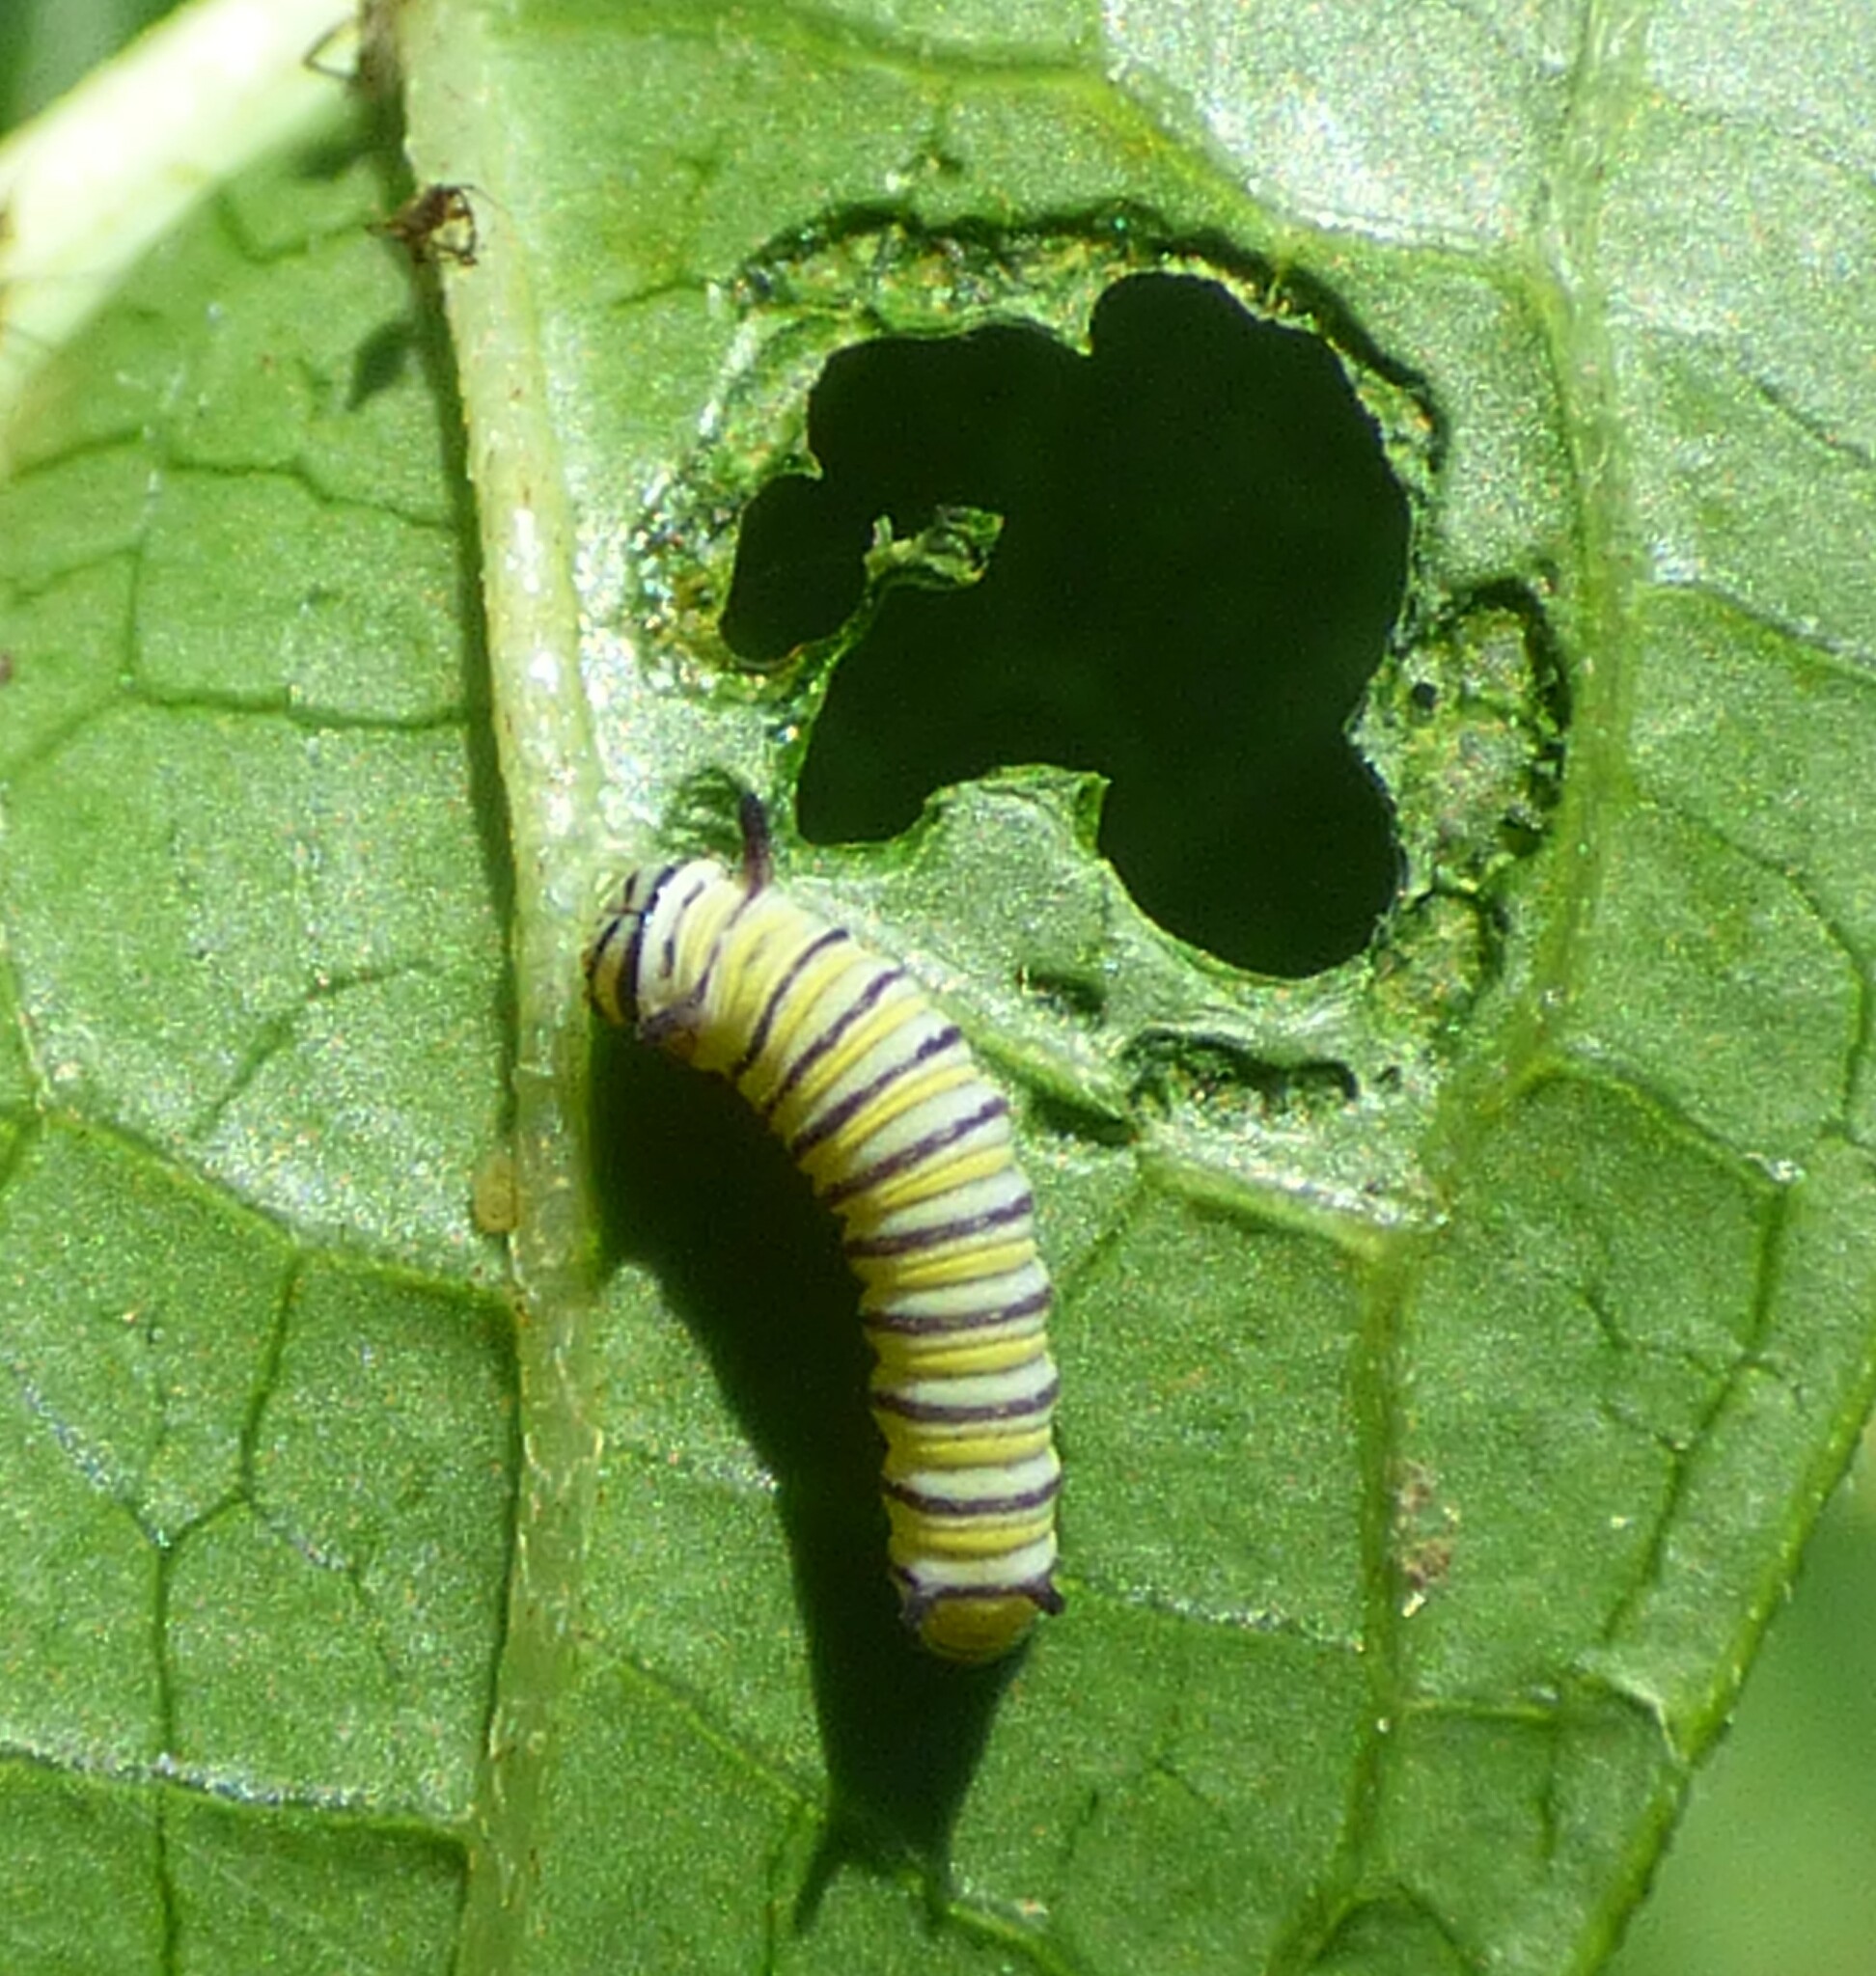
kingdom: Animalia
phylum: Arthropoda
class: Insecta
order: Lepidoptera
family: Nymphalidae
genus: Danaus
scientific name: Danaus plexippus
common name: Monarch
